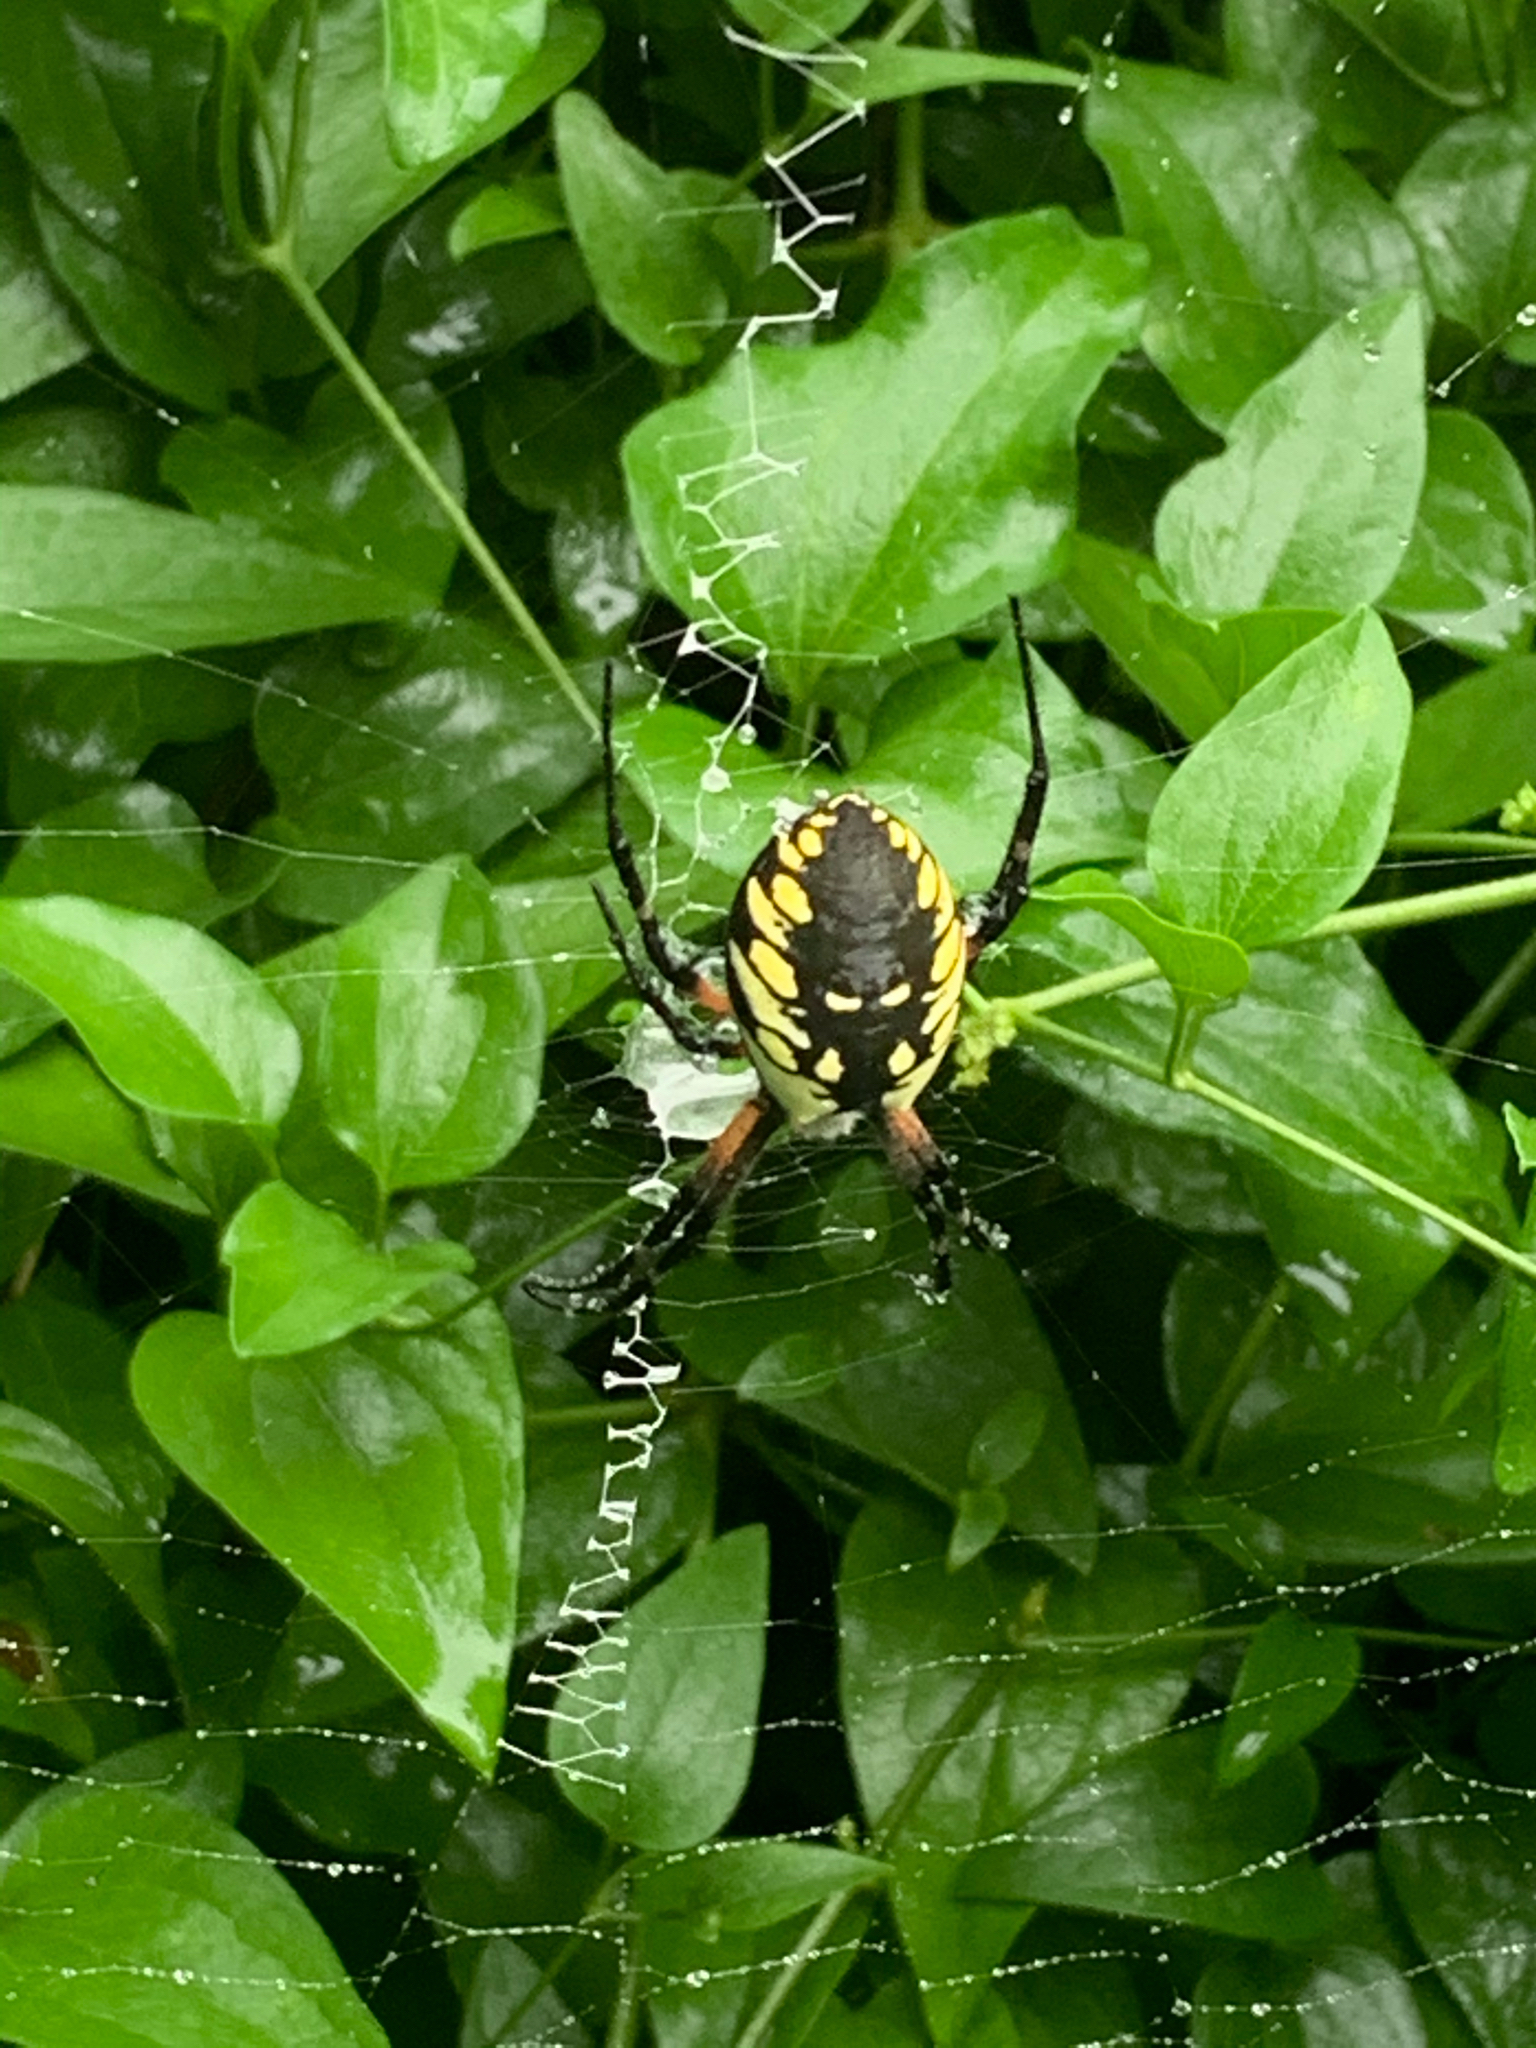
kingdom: Animalia
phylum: Arthropoda
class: Arachnida
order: Araneae
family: Araneidae
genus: Argiope
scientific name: Argiope aurantia
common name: Orb weavers
